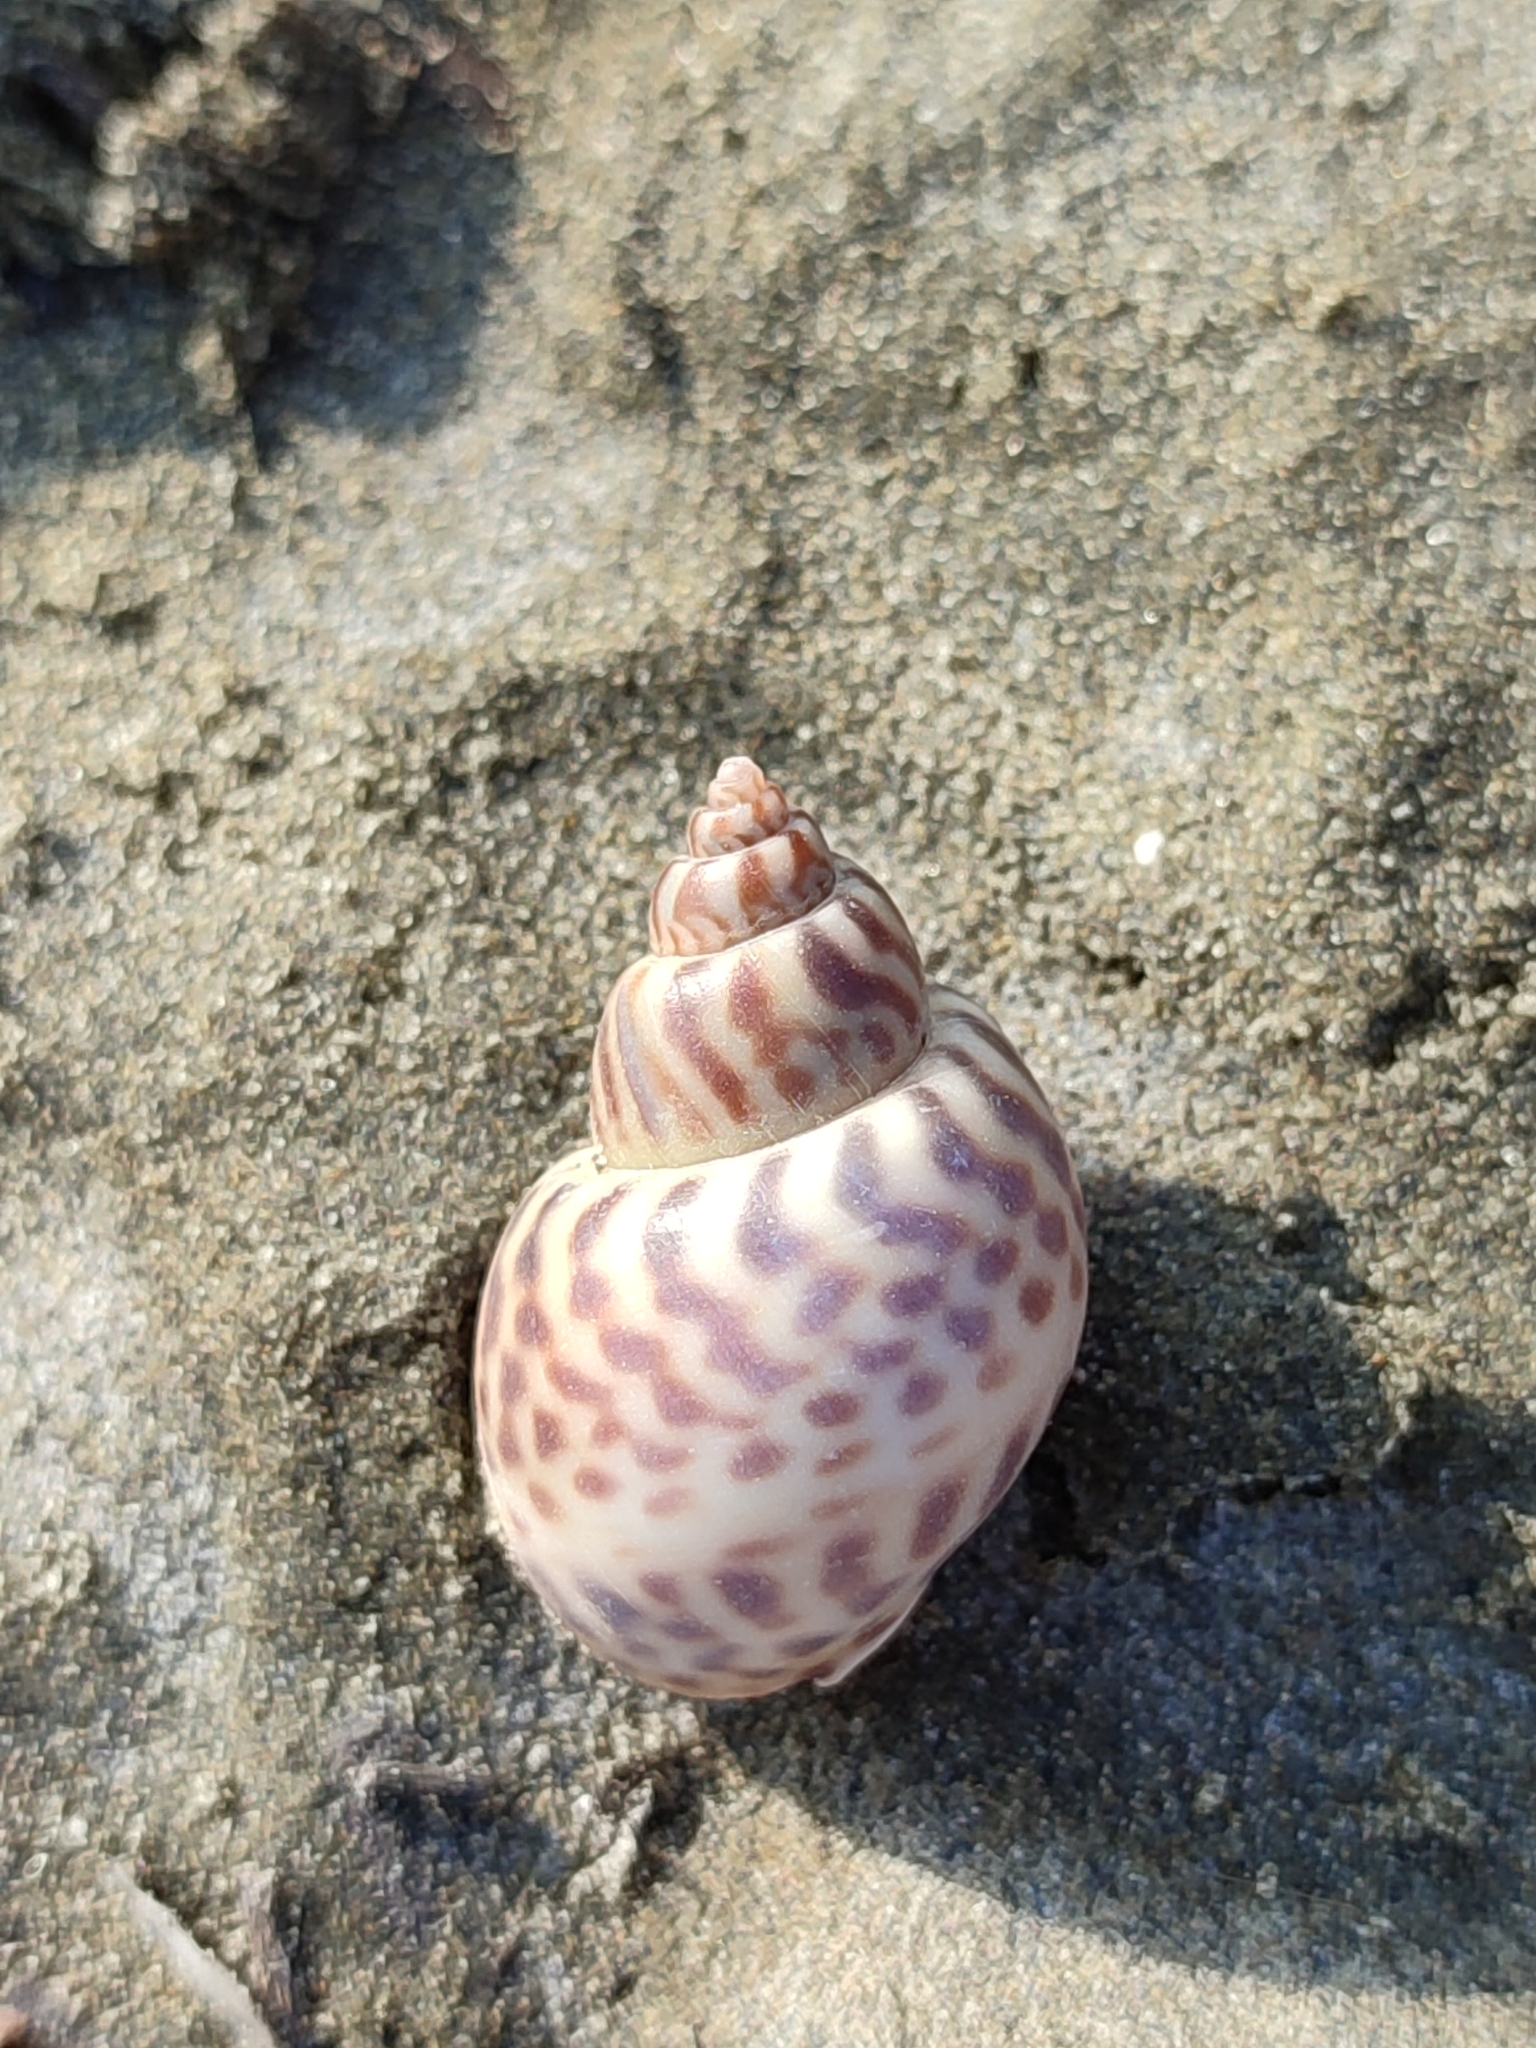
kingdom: Animalia
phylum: Mollusca
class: Gastropoda
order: Neogastropoda
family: Babyloniidae
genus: Babylonia
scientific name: Babylonia japonica
